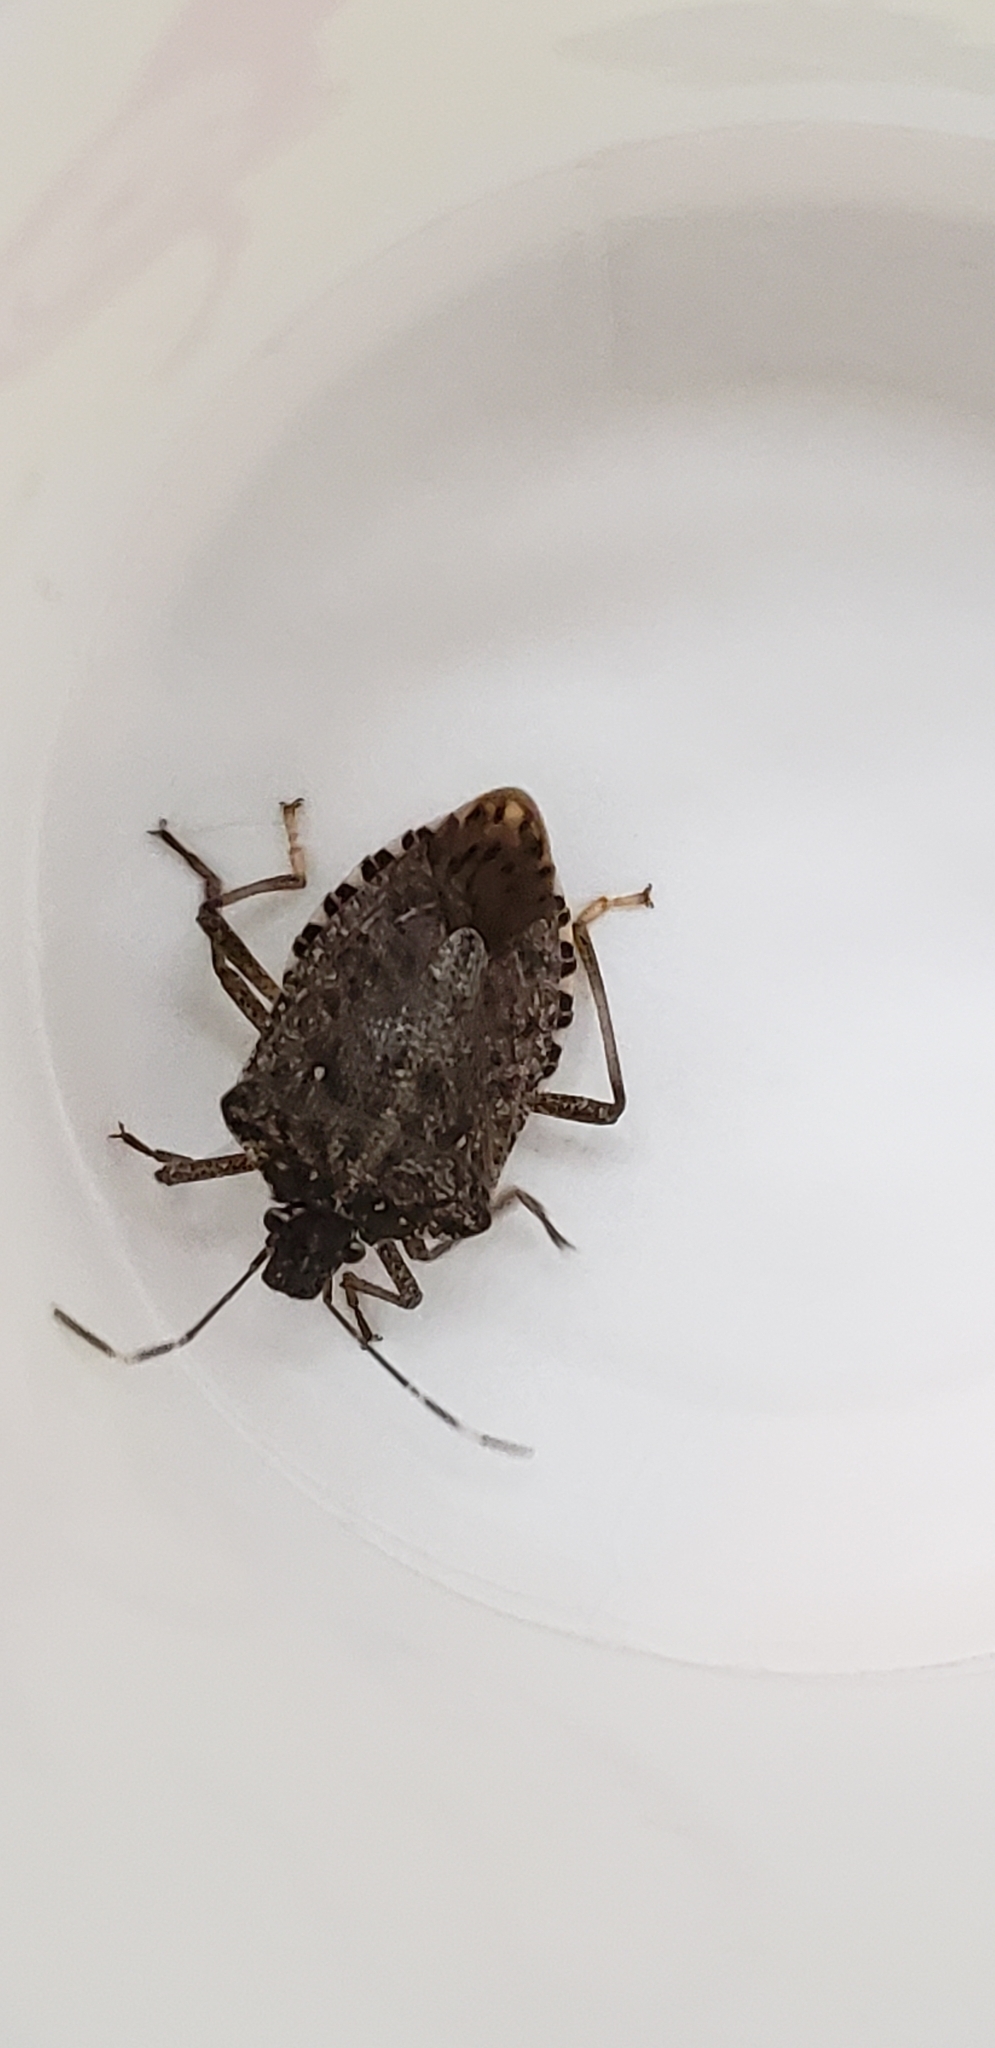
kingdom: Animalia
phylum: Arthropoda
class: Insecta
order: Hemiptera
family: Pentatomidae
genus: Halyomorpha
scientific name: Halyomorpha halys
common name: Brown marmorated stink bug
